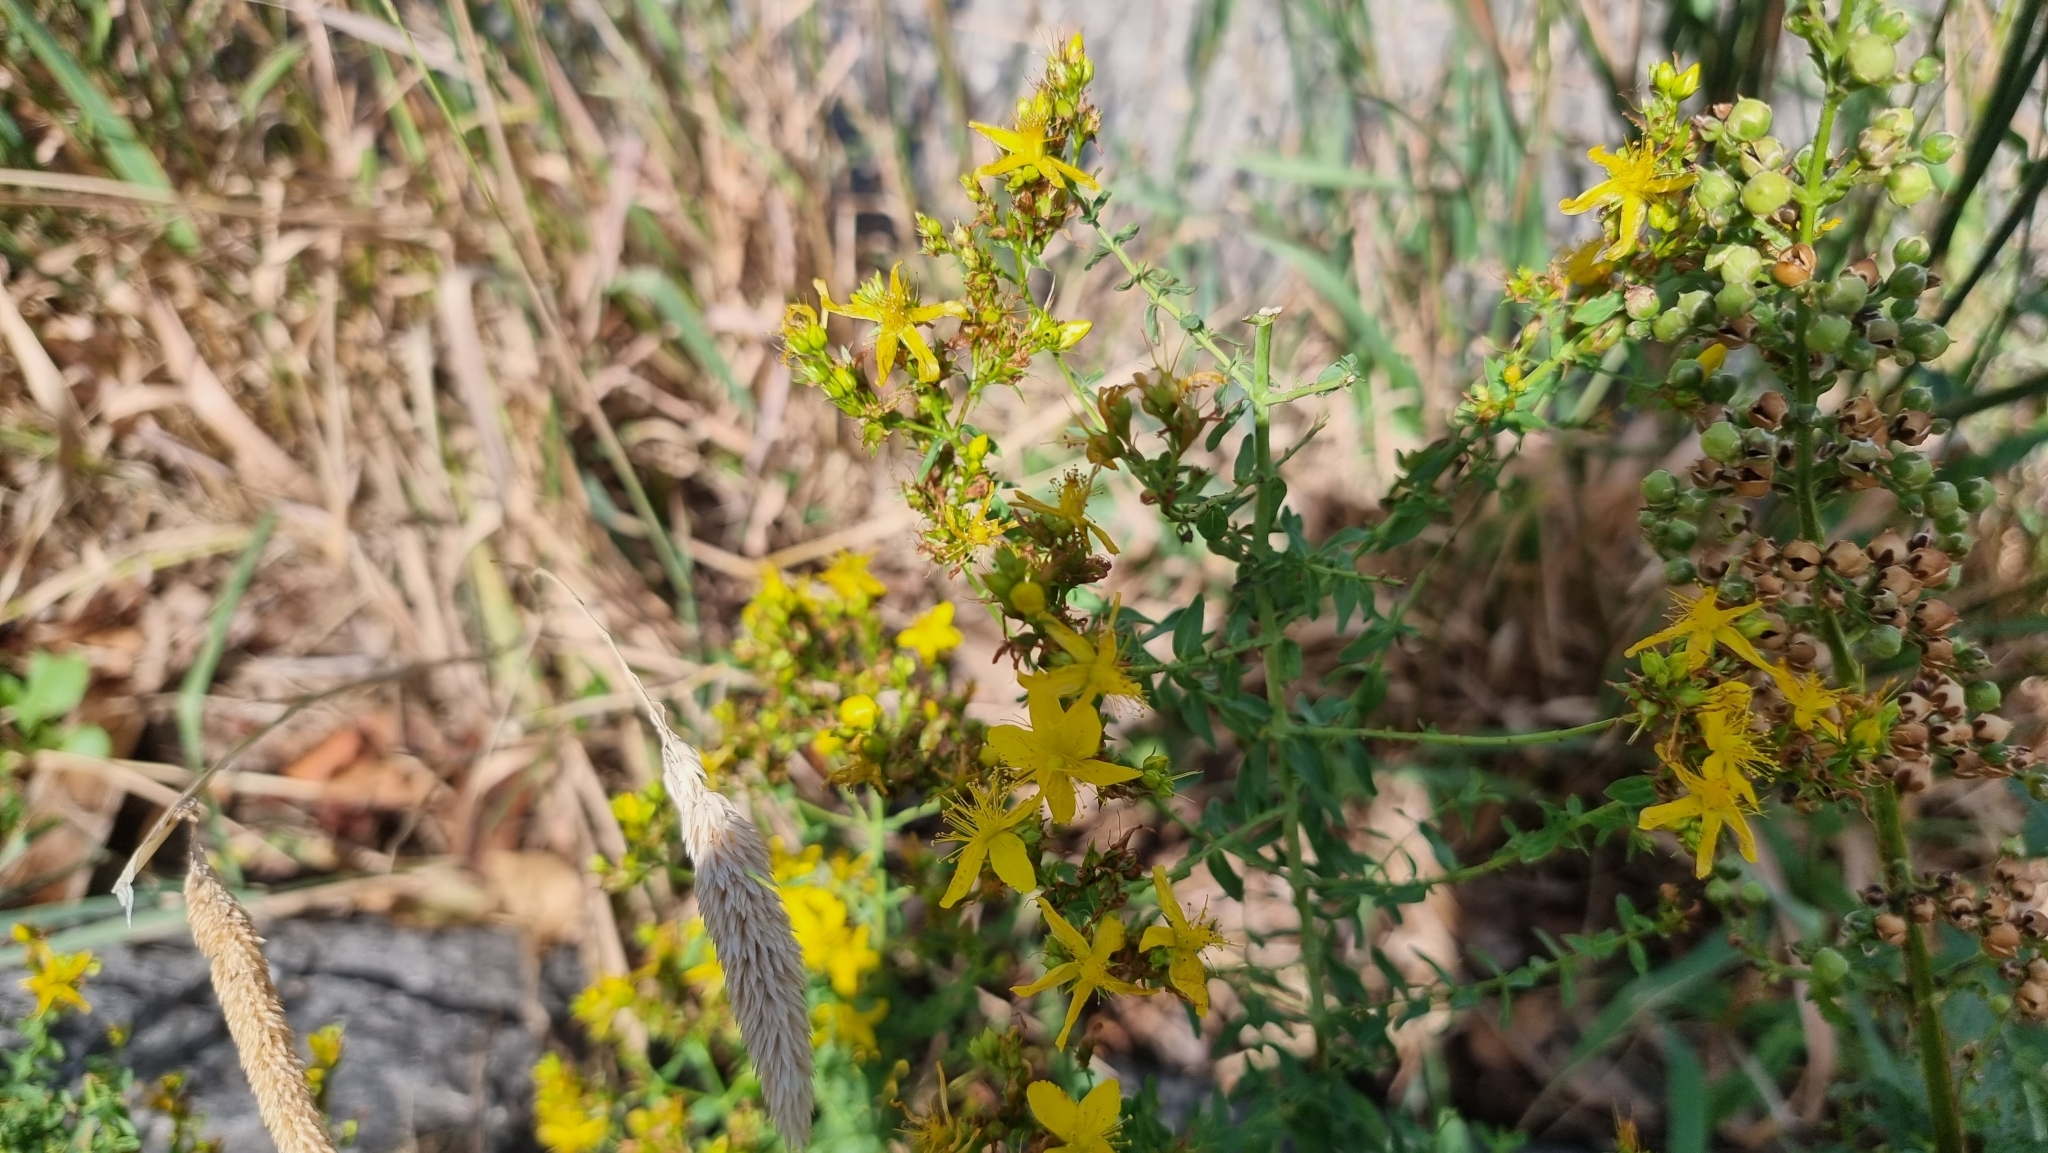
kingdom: Plantae
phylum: Tracheophyta
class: Magnoliopsida
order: Malpighiales
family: Hypericaceae
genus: Hypericum
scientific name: Hypericum perforatum
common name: Common st. johnswort
